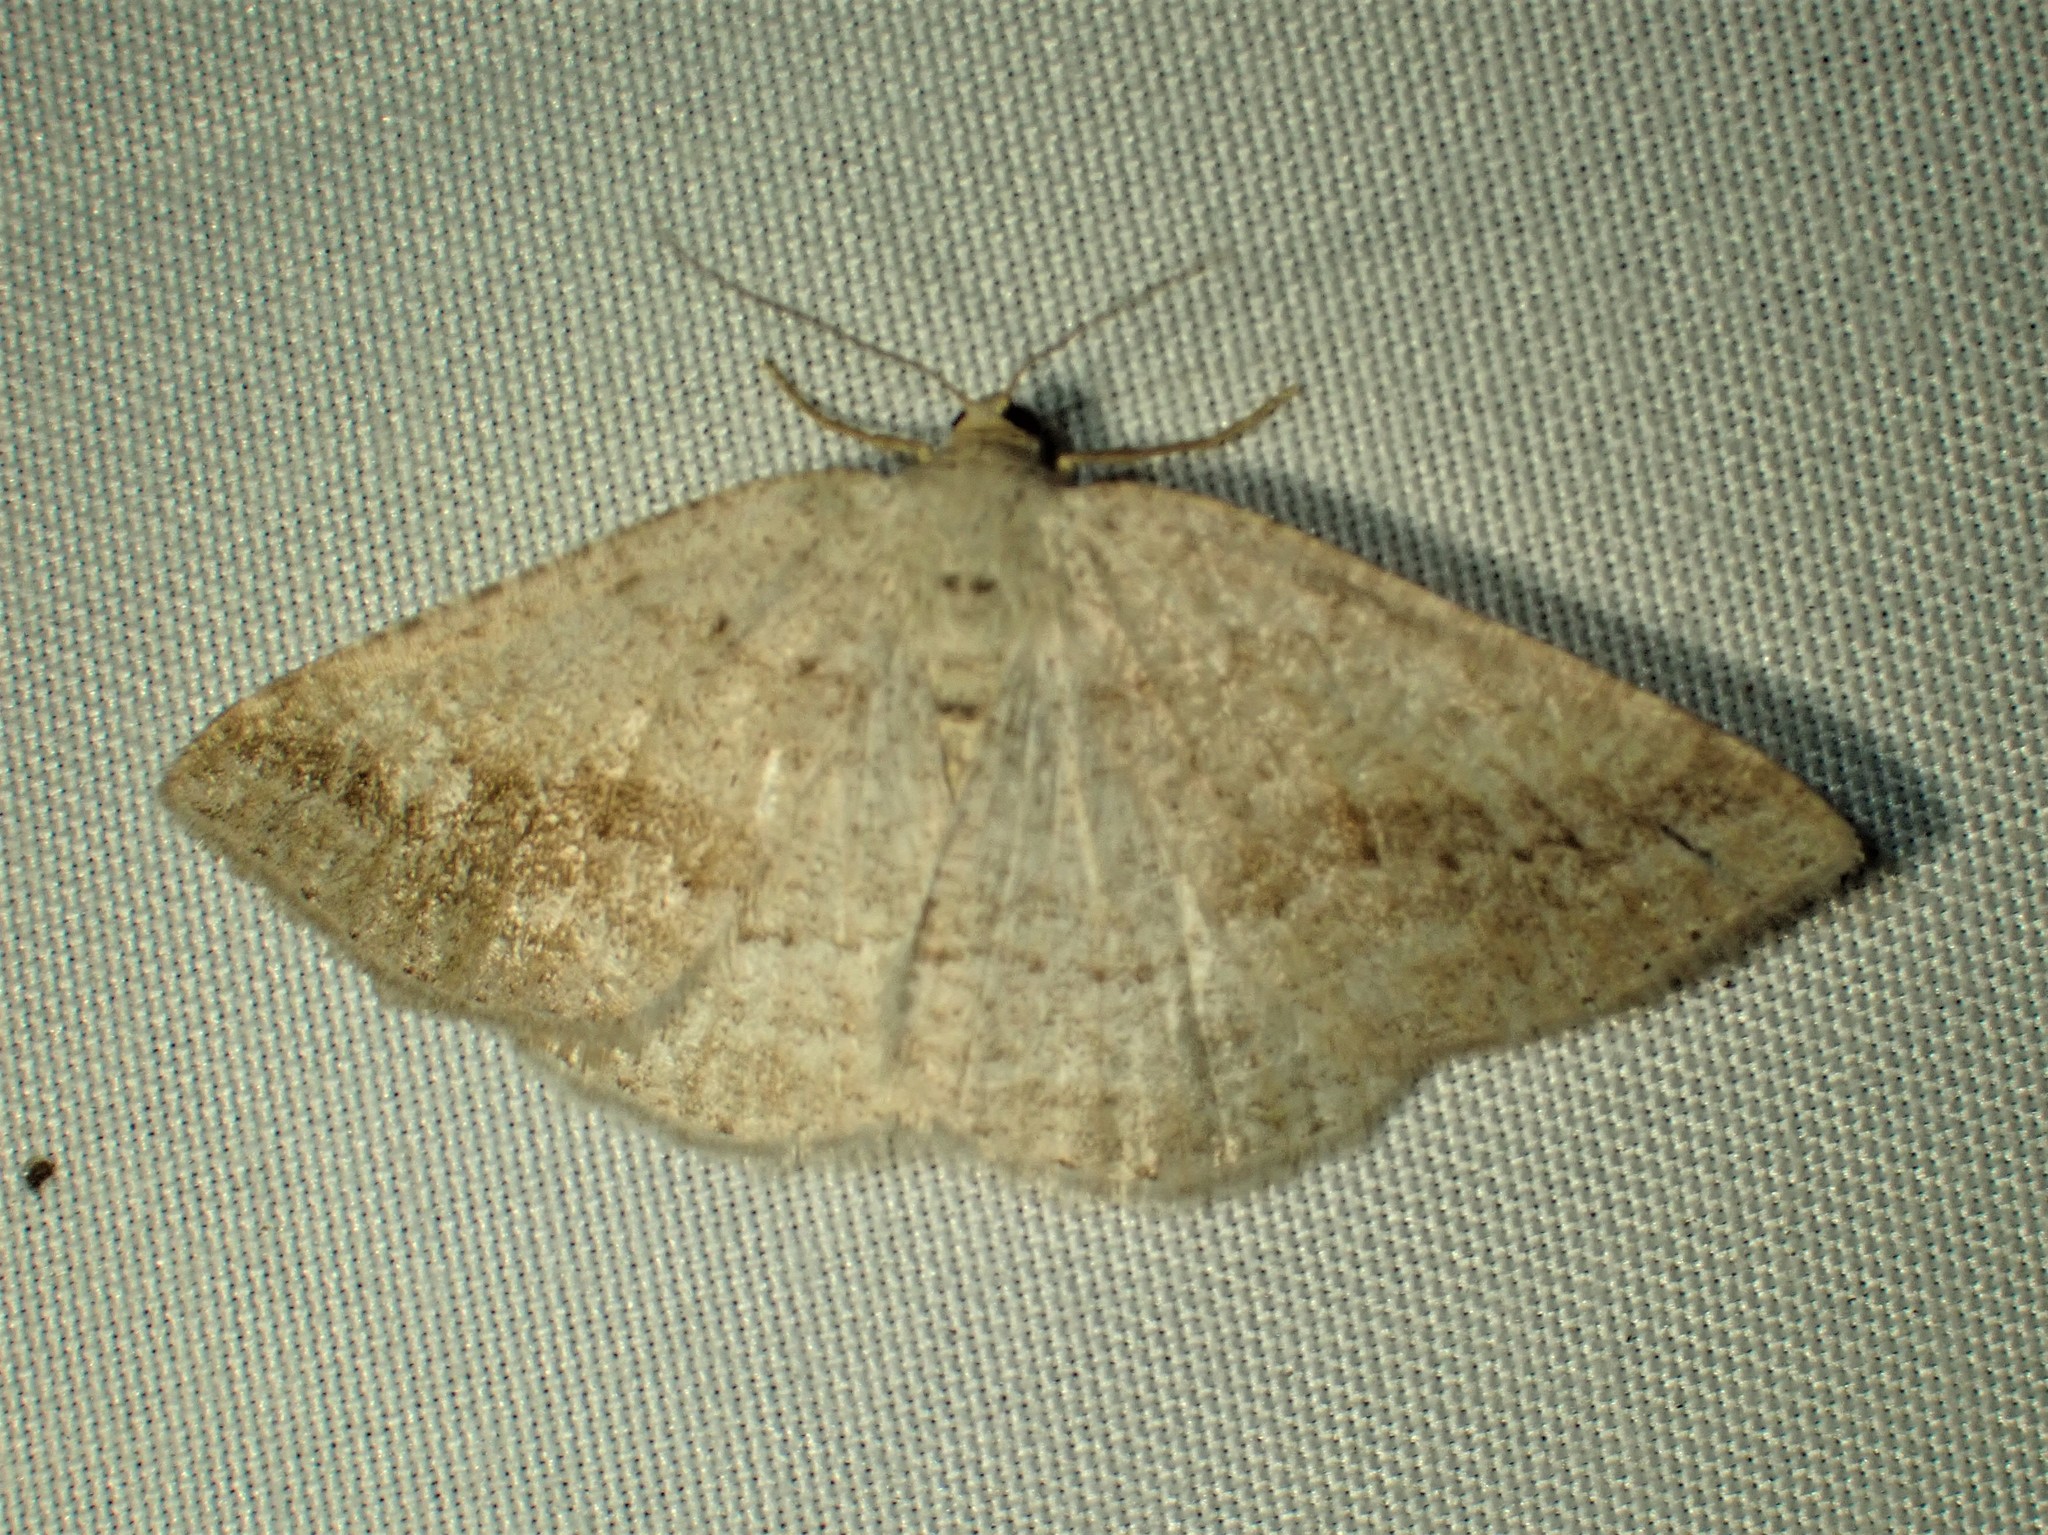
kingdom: Animalia
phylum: Arthropoda
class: Insecta
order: Lepidoptera
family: Geometridae
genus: Tacparia
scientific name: Tacparia detersata
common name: Pale alder moth
